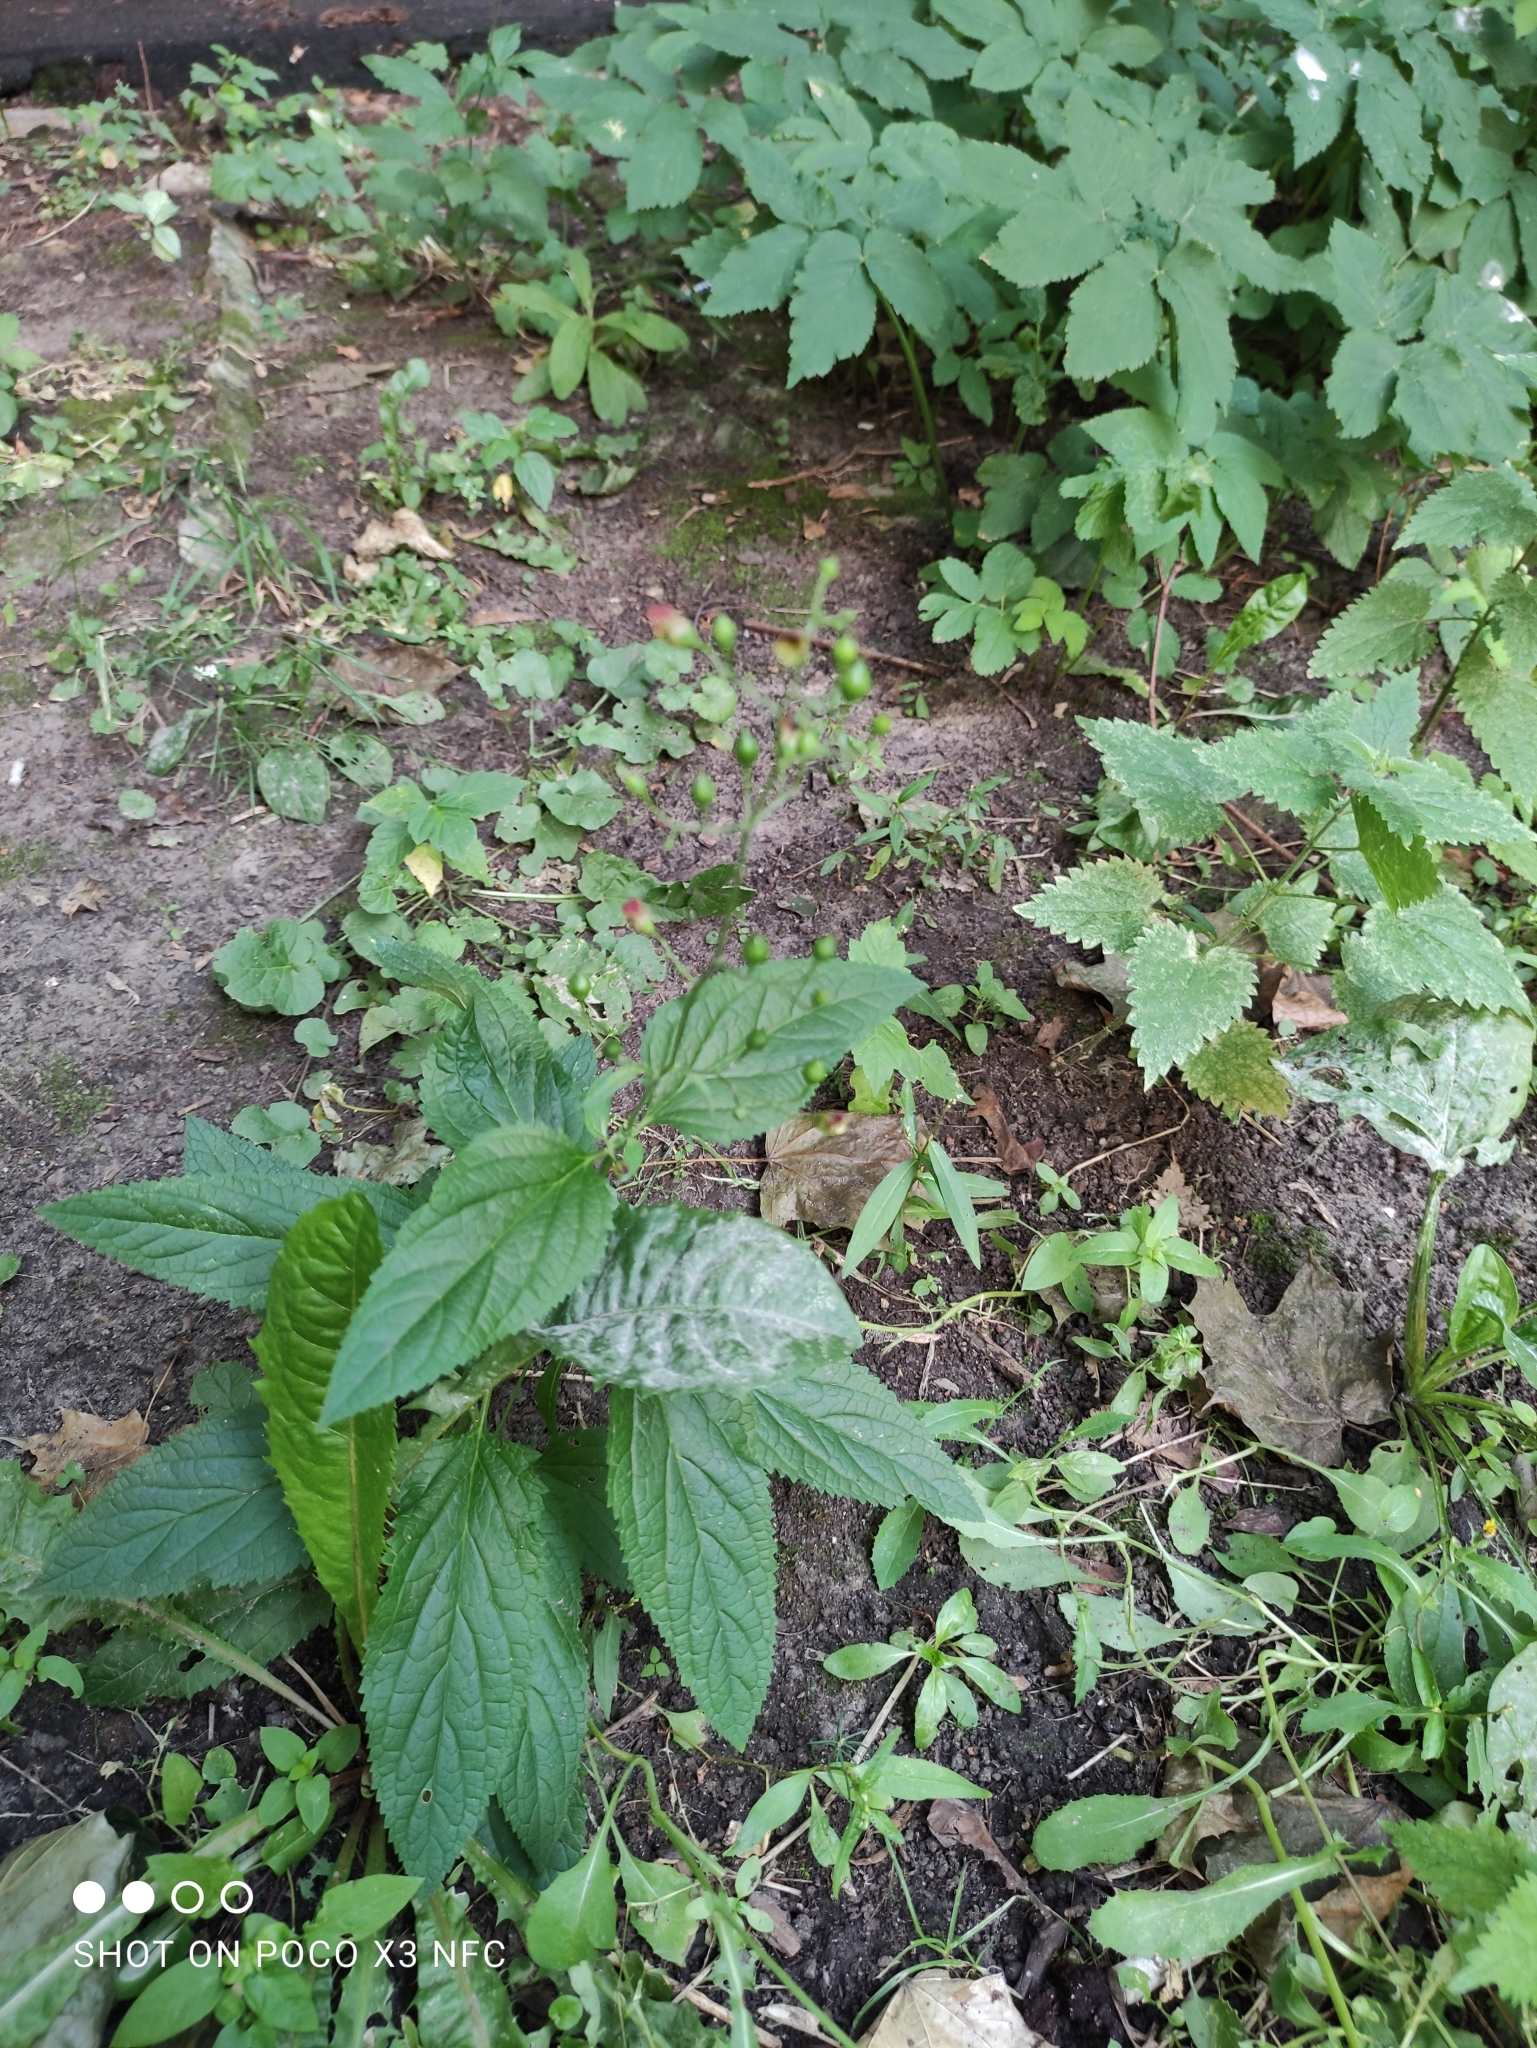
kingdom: Plantae
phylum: Tracheophyta
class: Magnoliopsida
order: Lamiales
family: Scrophulariaceae
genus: Scrophularia
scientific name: Scrophularia nodosa
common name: Common figwort
